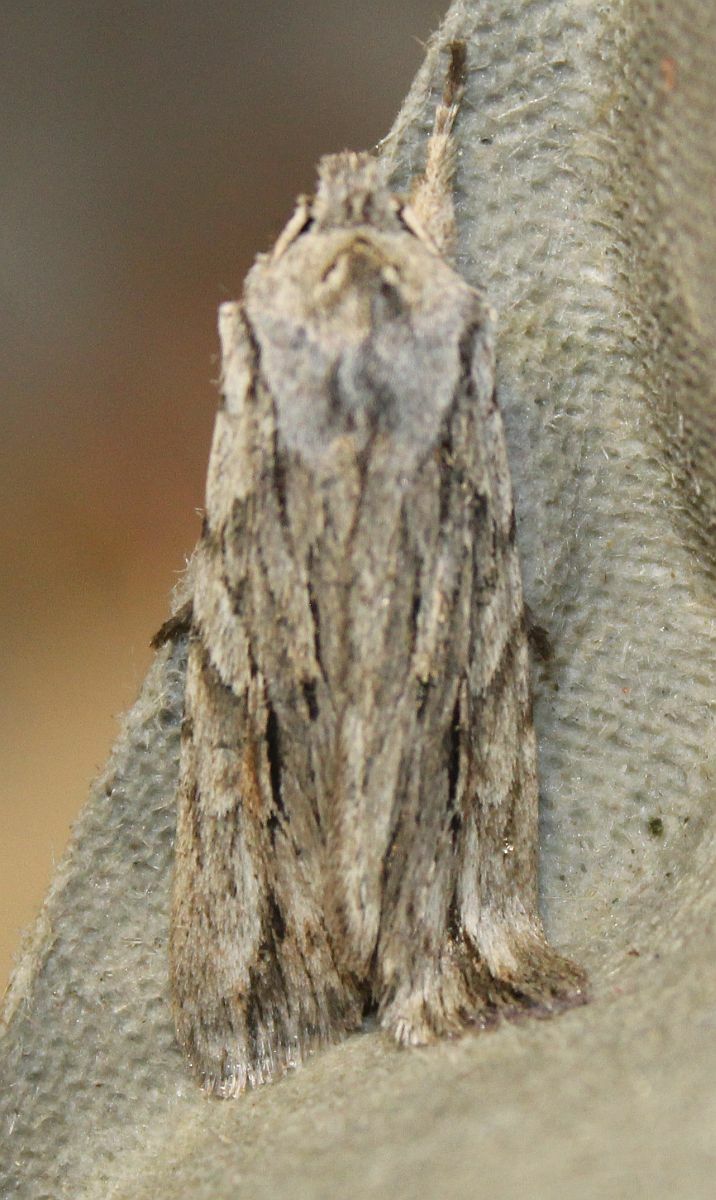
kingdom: Animalia
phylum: Arthropoda
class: Insecta
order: Lepidoptera
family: Noctuidae
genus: Lithophane
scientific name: Lithophane leautieri
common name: Blair's shoulder-knot
